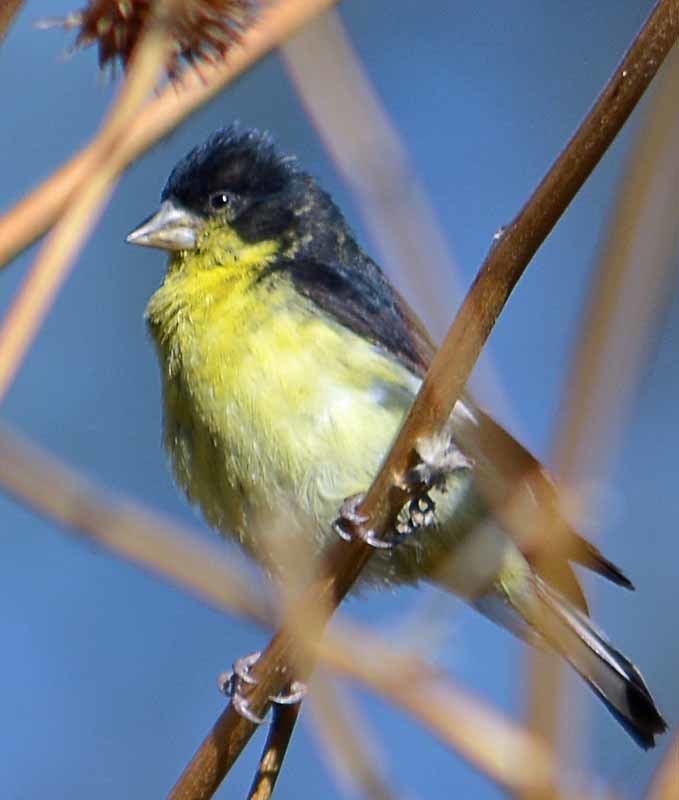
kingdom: Animalia
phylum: Chordata
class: Aves
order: Passeriformes
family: Fringillidae
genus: Spinus
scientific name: Spinus psaltria
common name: Lesser goldfinch
